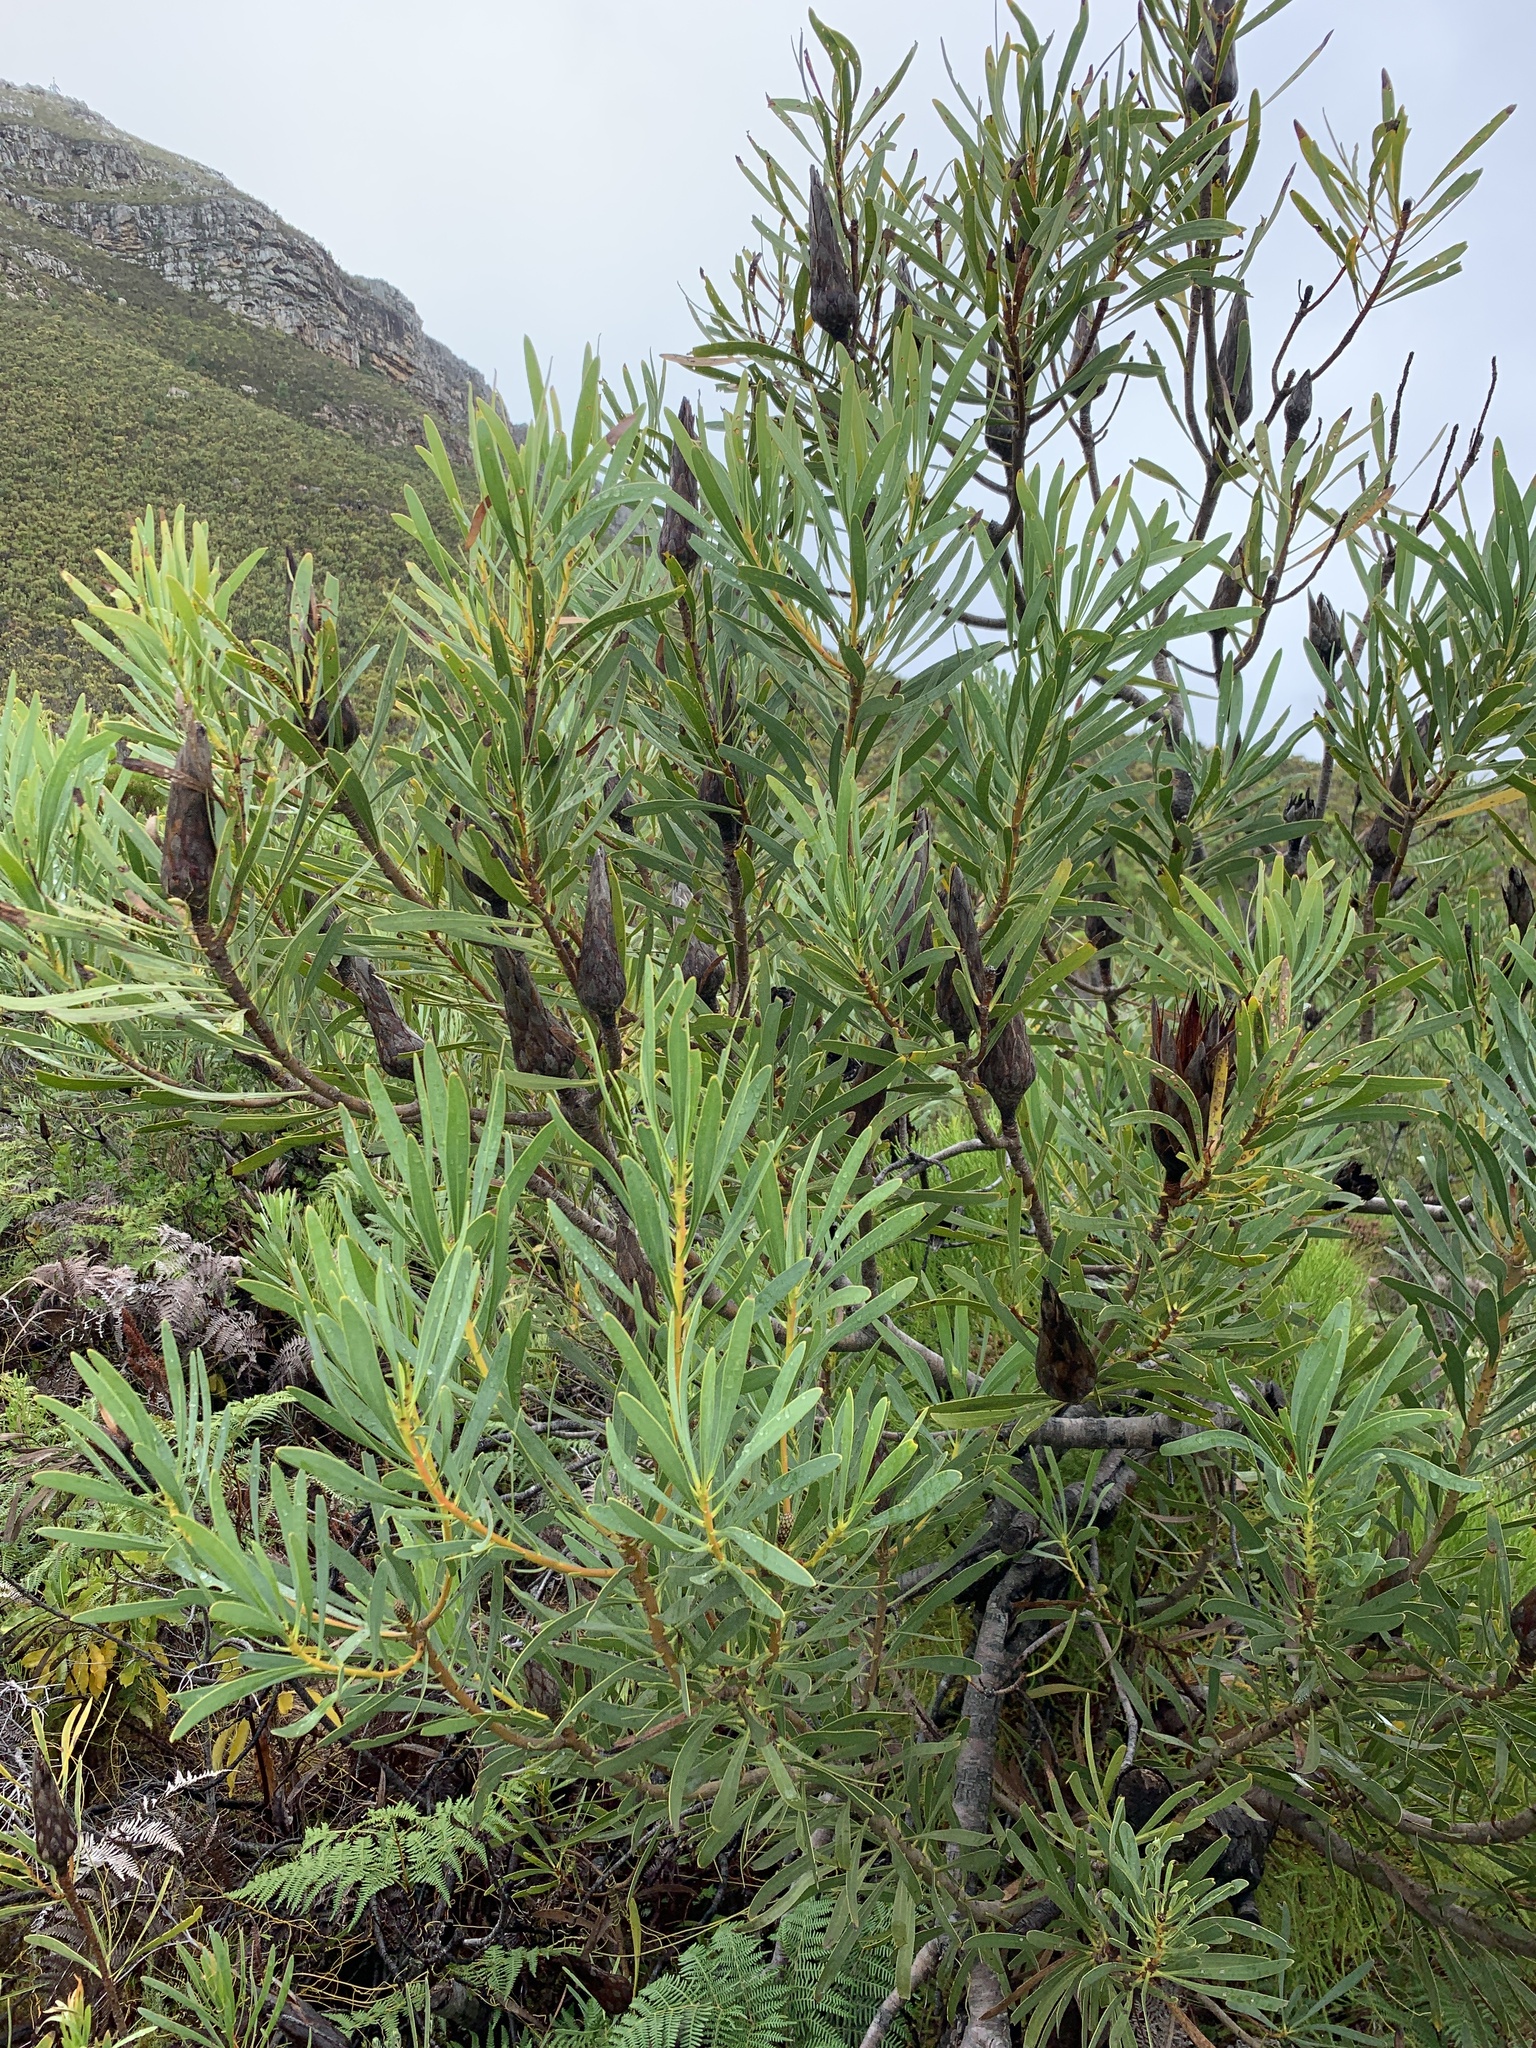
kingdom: Plantae
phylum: Tracheophyta
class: Magnoliopsida
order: Proteales
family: Proteaceae
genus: Protea
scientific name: Protea repens
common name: Sugarbush
